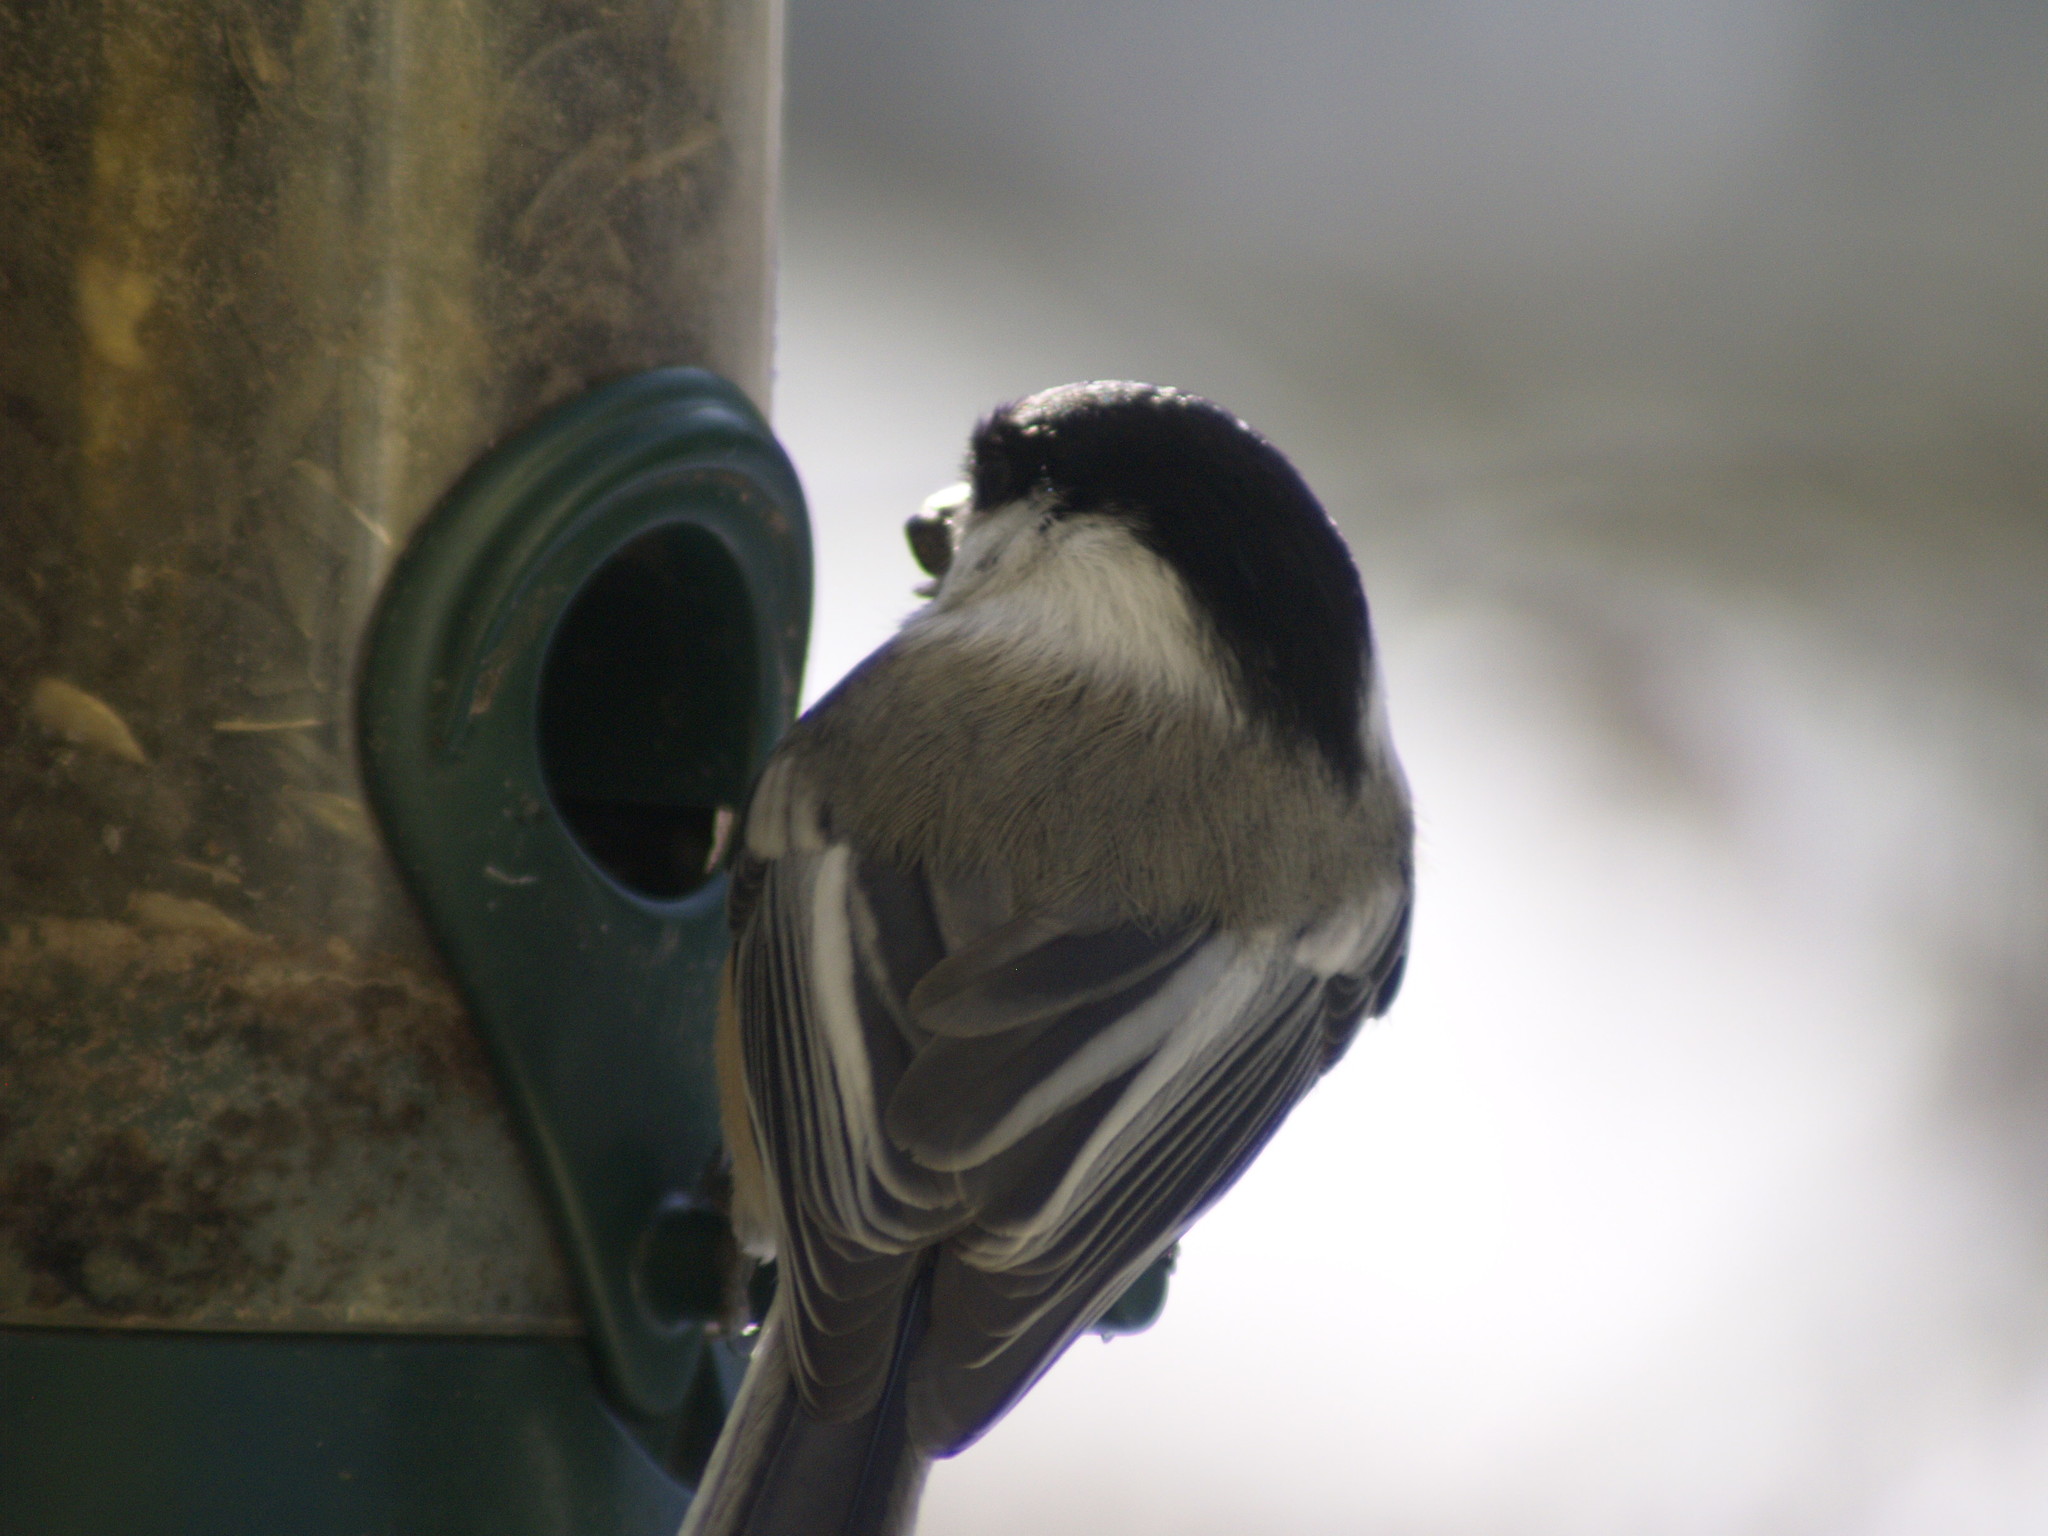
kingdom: Animalia
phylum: Chordata
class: Aves
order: Passeriformes
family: Paridae
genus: Poecile
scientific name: Poecile atricapillus
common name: Black-capped chickadee
